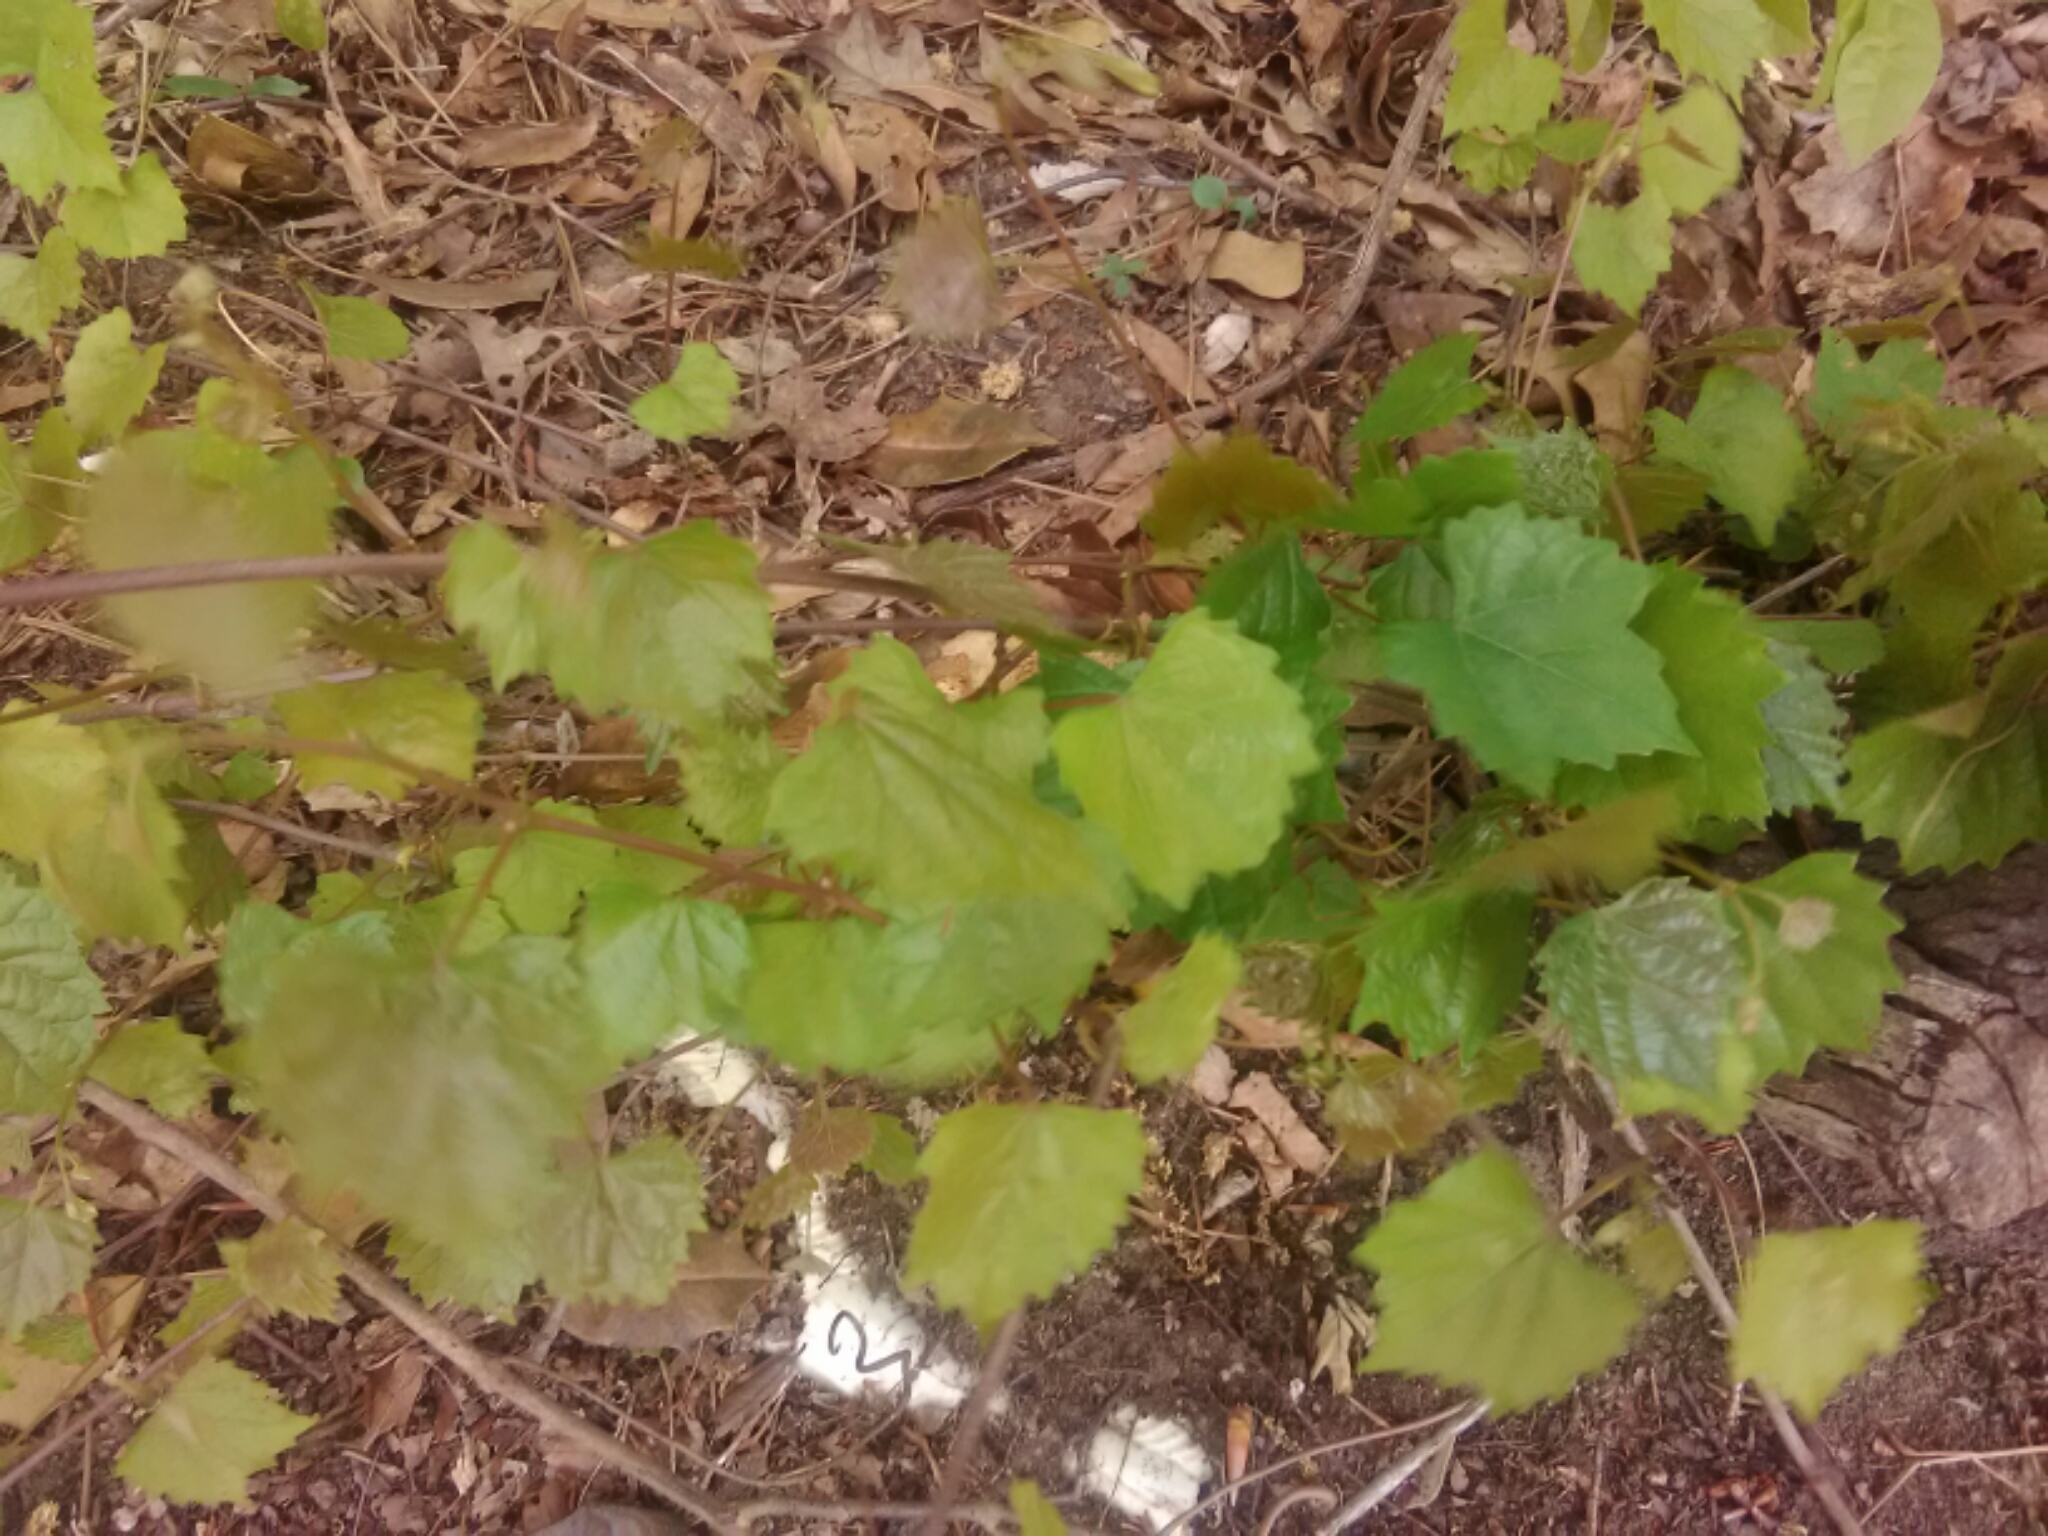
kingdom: Plantae
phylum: Tracheophyta
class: Magnoliopsida
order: Vitales
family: Vitaceae
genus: Vitis
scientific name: Vitis rotundifolia
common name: Muscadine grape
